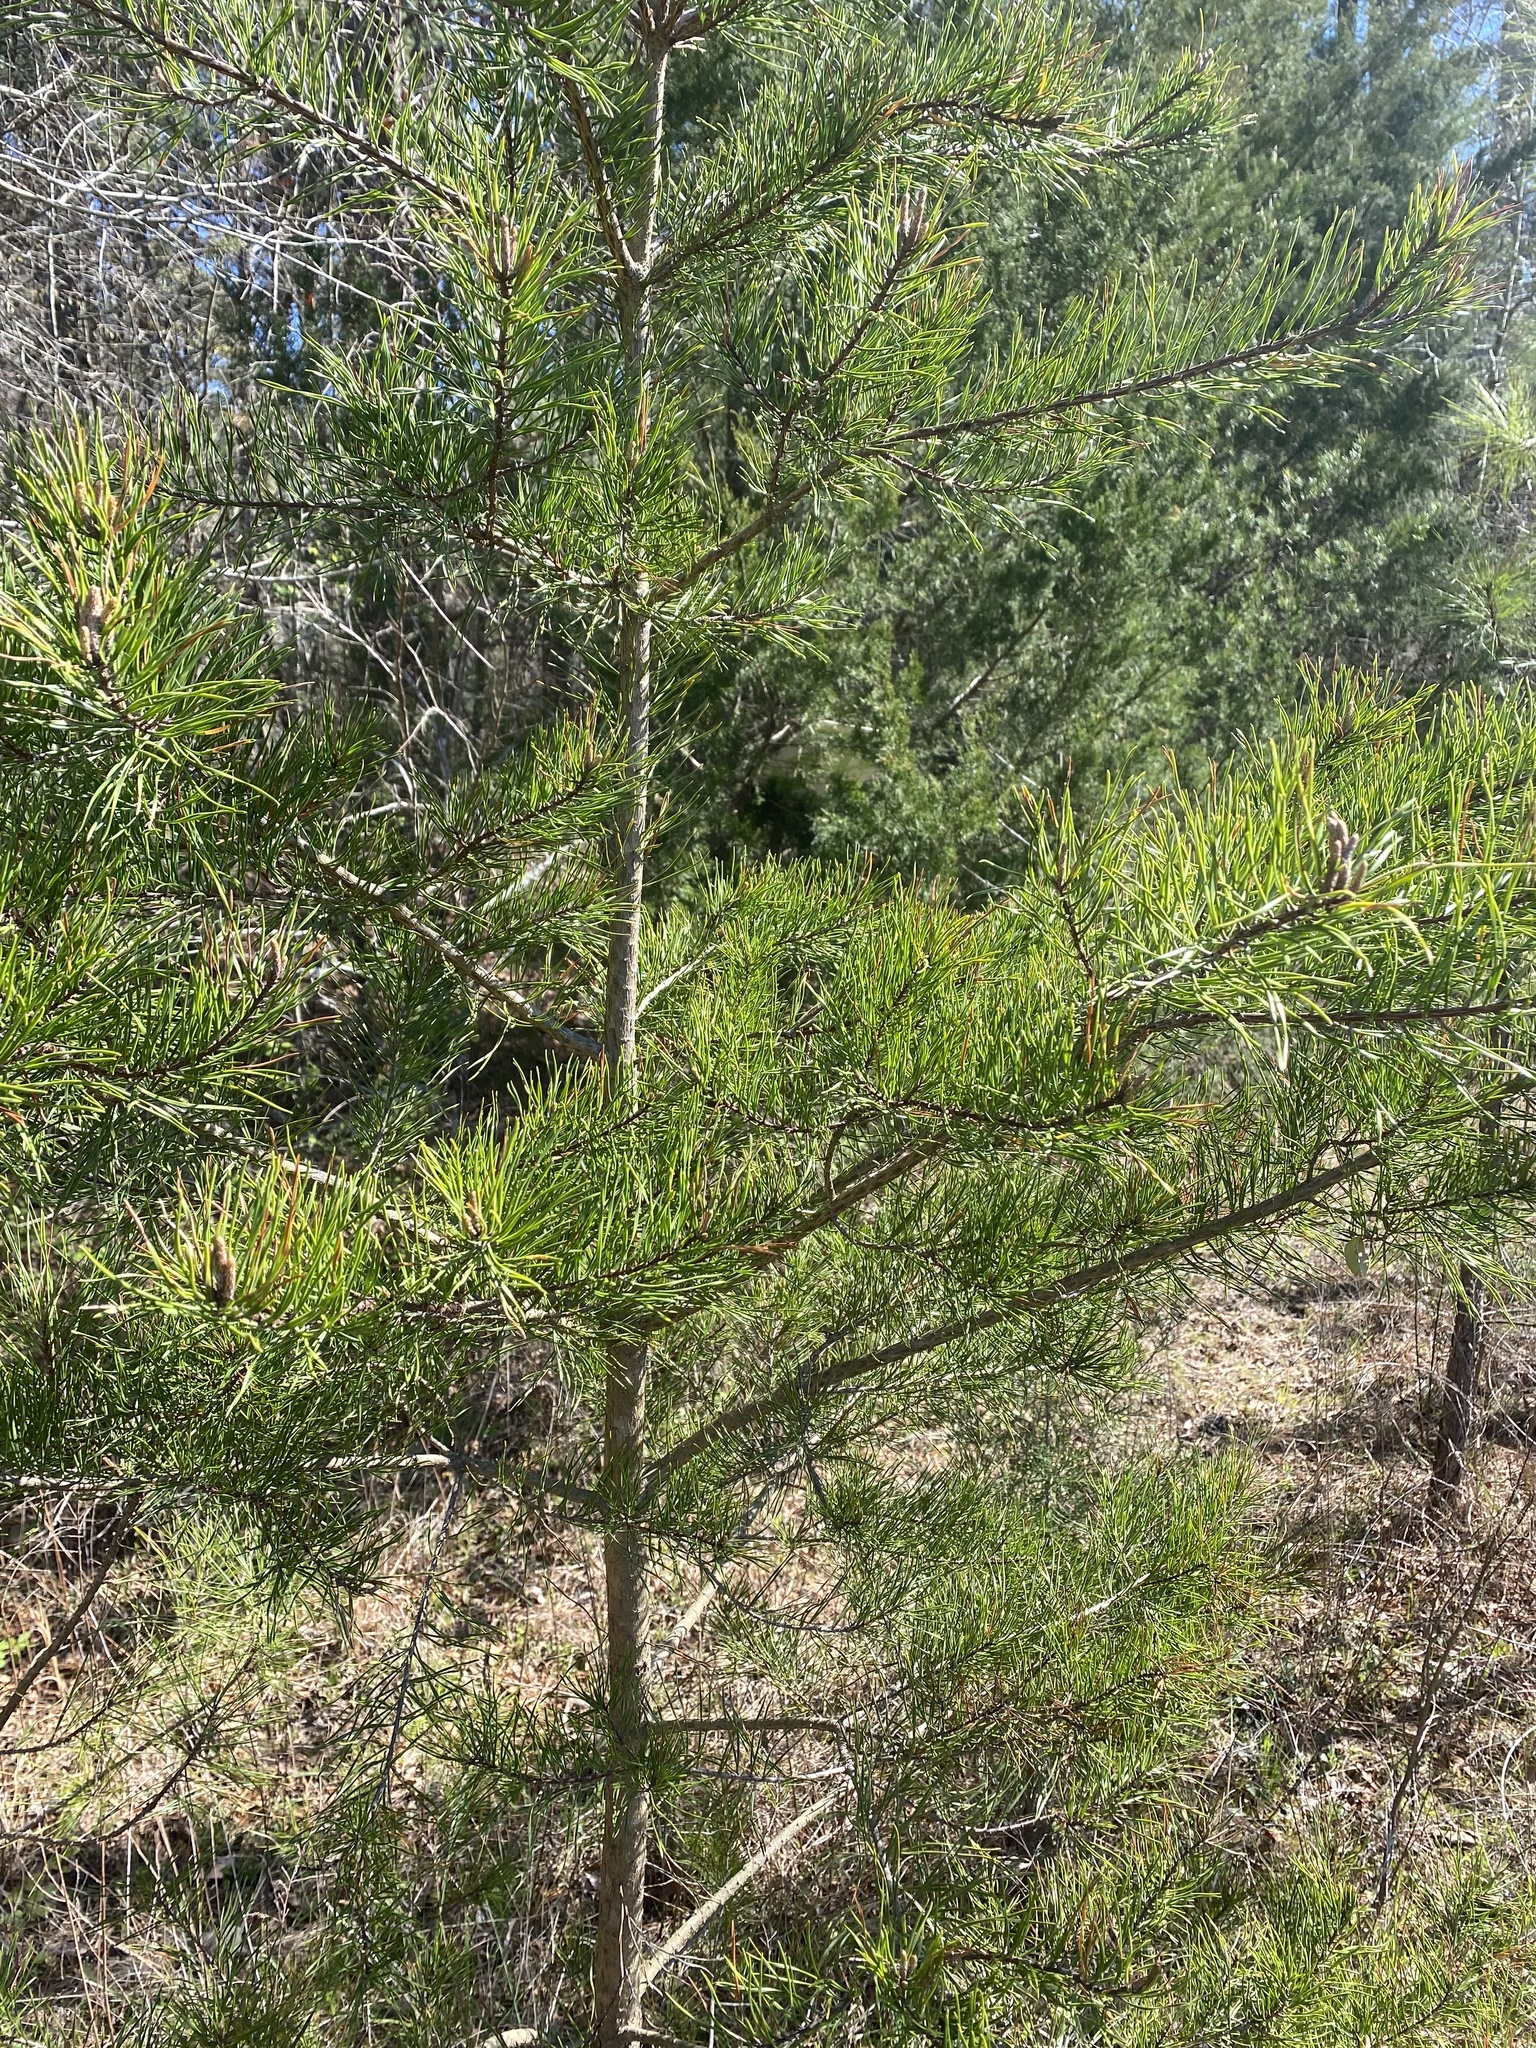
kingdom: Plantae
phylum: Tracheophyta
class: Pinopsida
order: Pinales
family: Pinaceae
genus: Pinus
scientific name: Pinus virginiana
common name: Scrub pine
